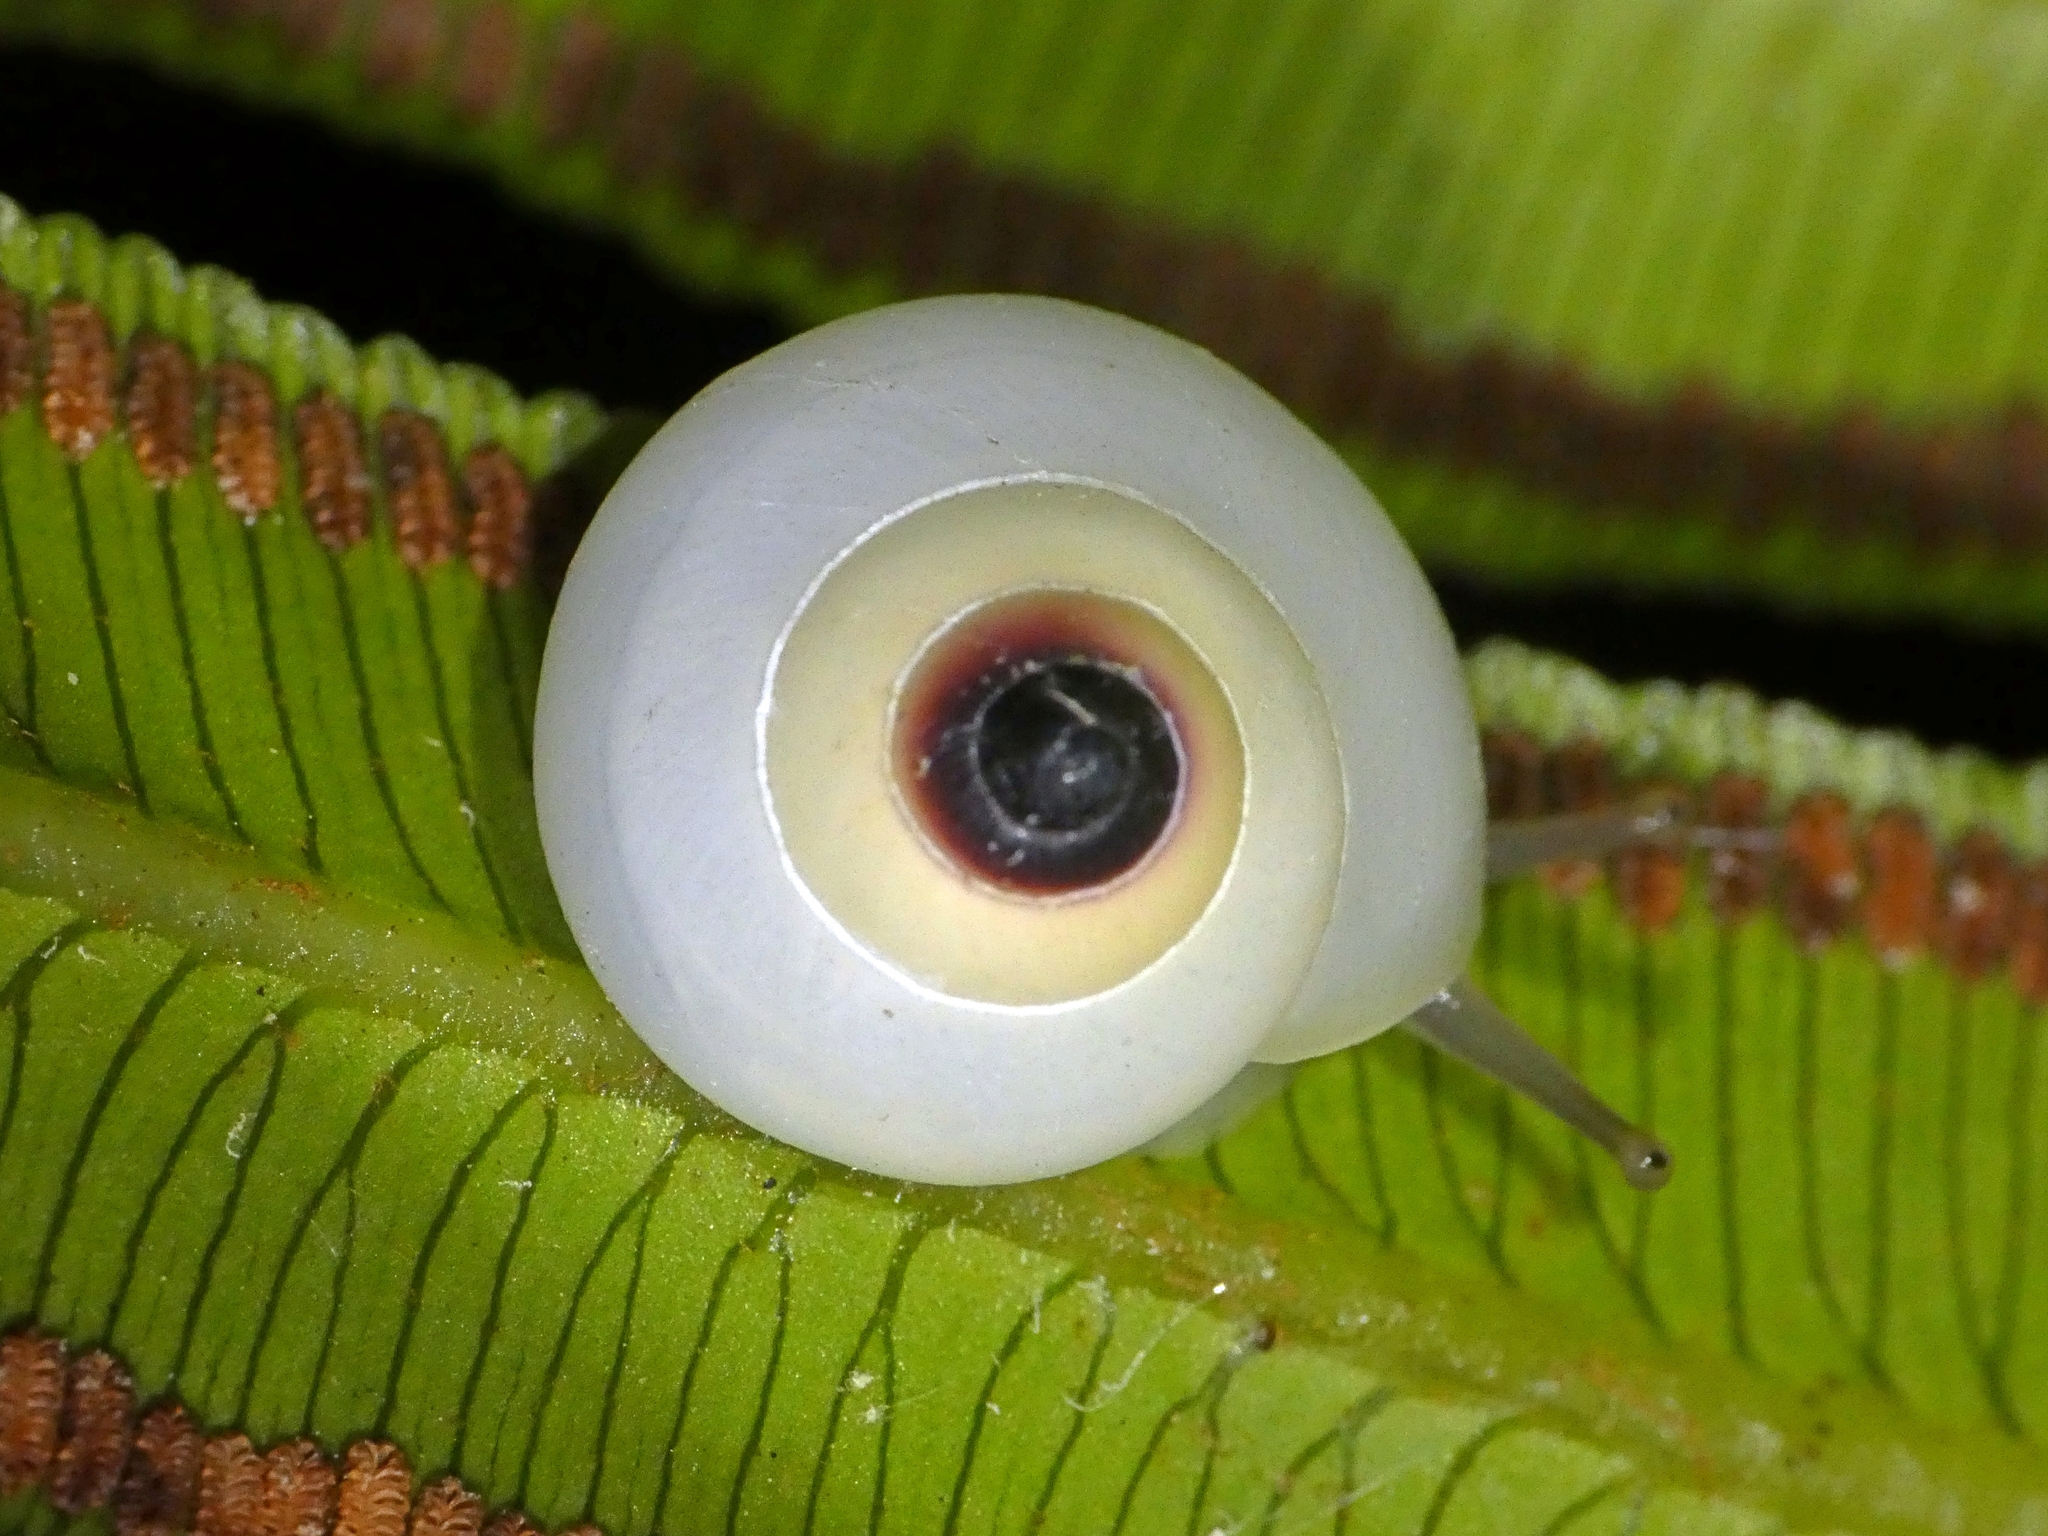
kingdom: Animalia
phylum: Mollusca
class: Gastropoda
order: Stylommatophora
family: Camaenidae
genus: Noctepuna
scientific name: Noctepuna cerea
